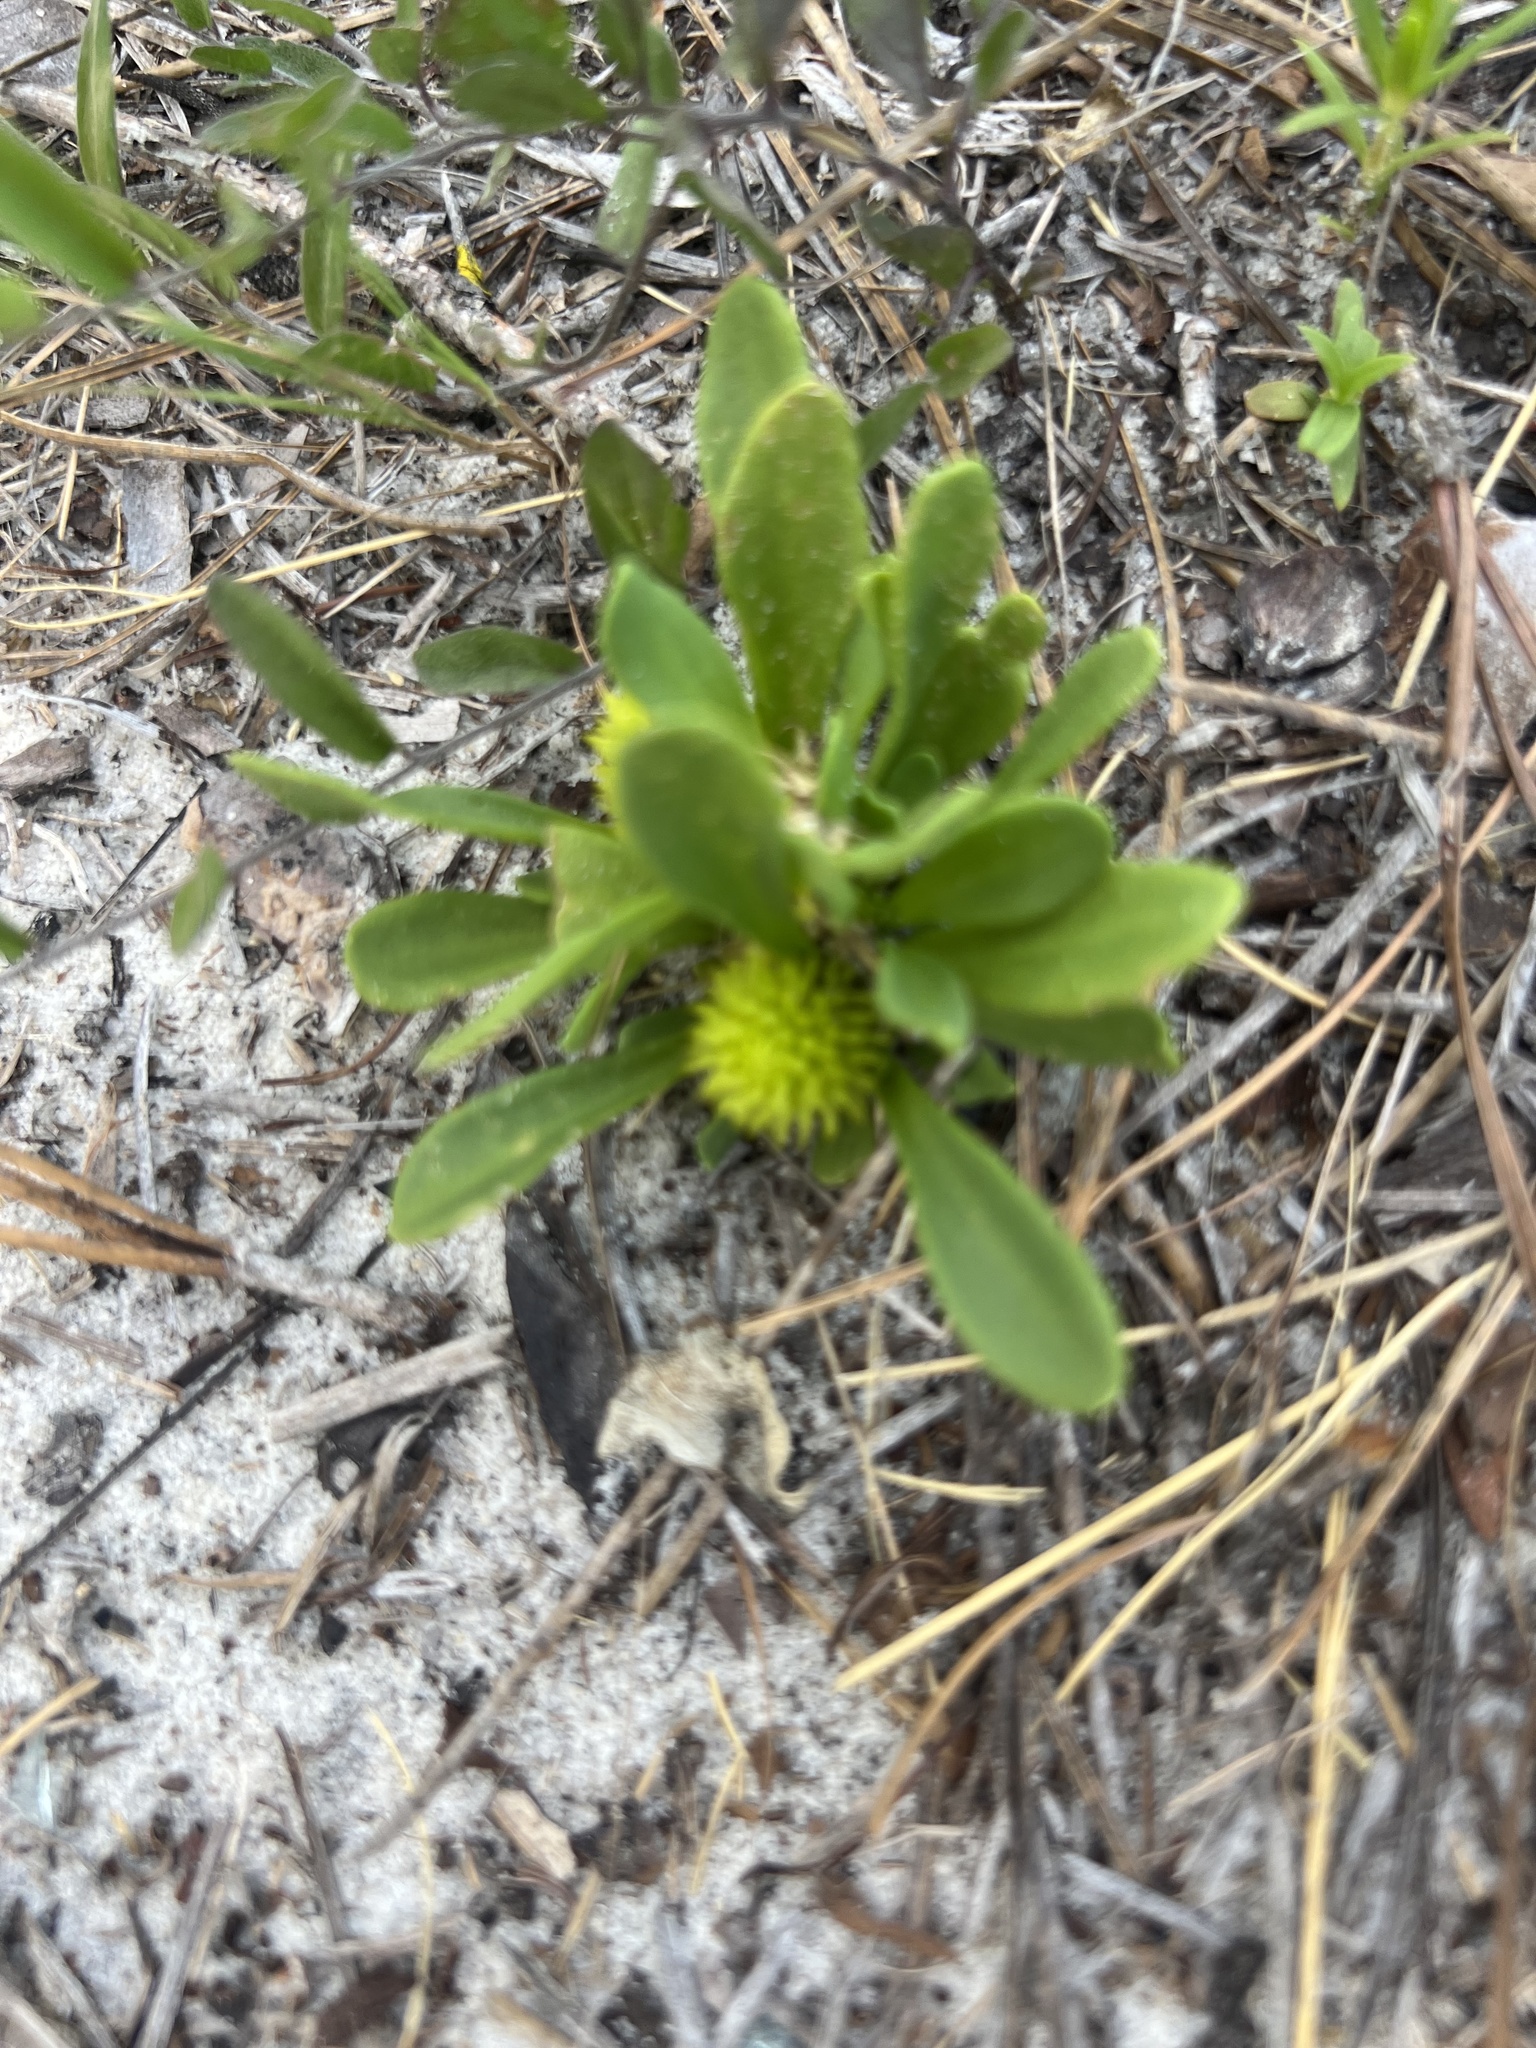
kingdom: Plantae
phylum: Tracheophyta
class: Magnoliopsida
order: Fabales
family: Polygalaceae
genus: Polygala
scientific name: Polygala nana
